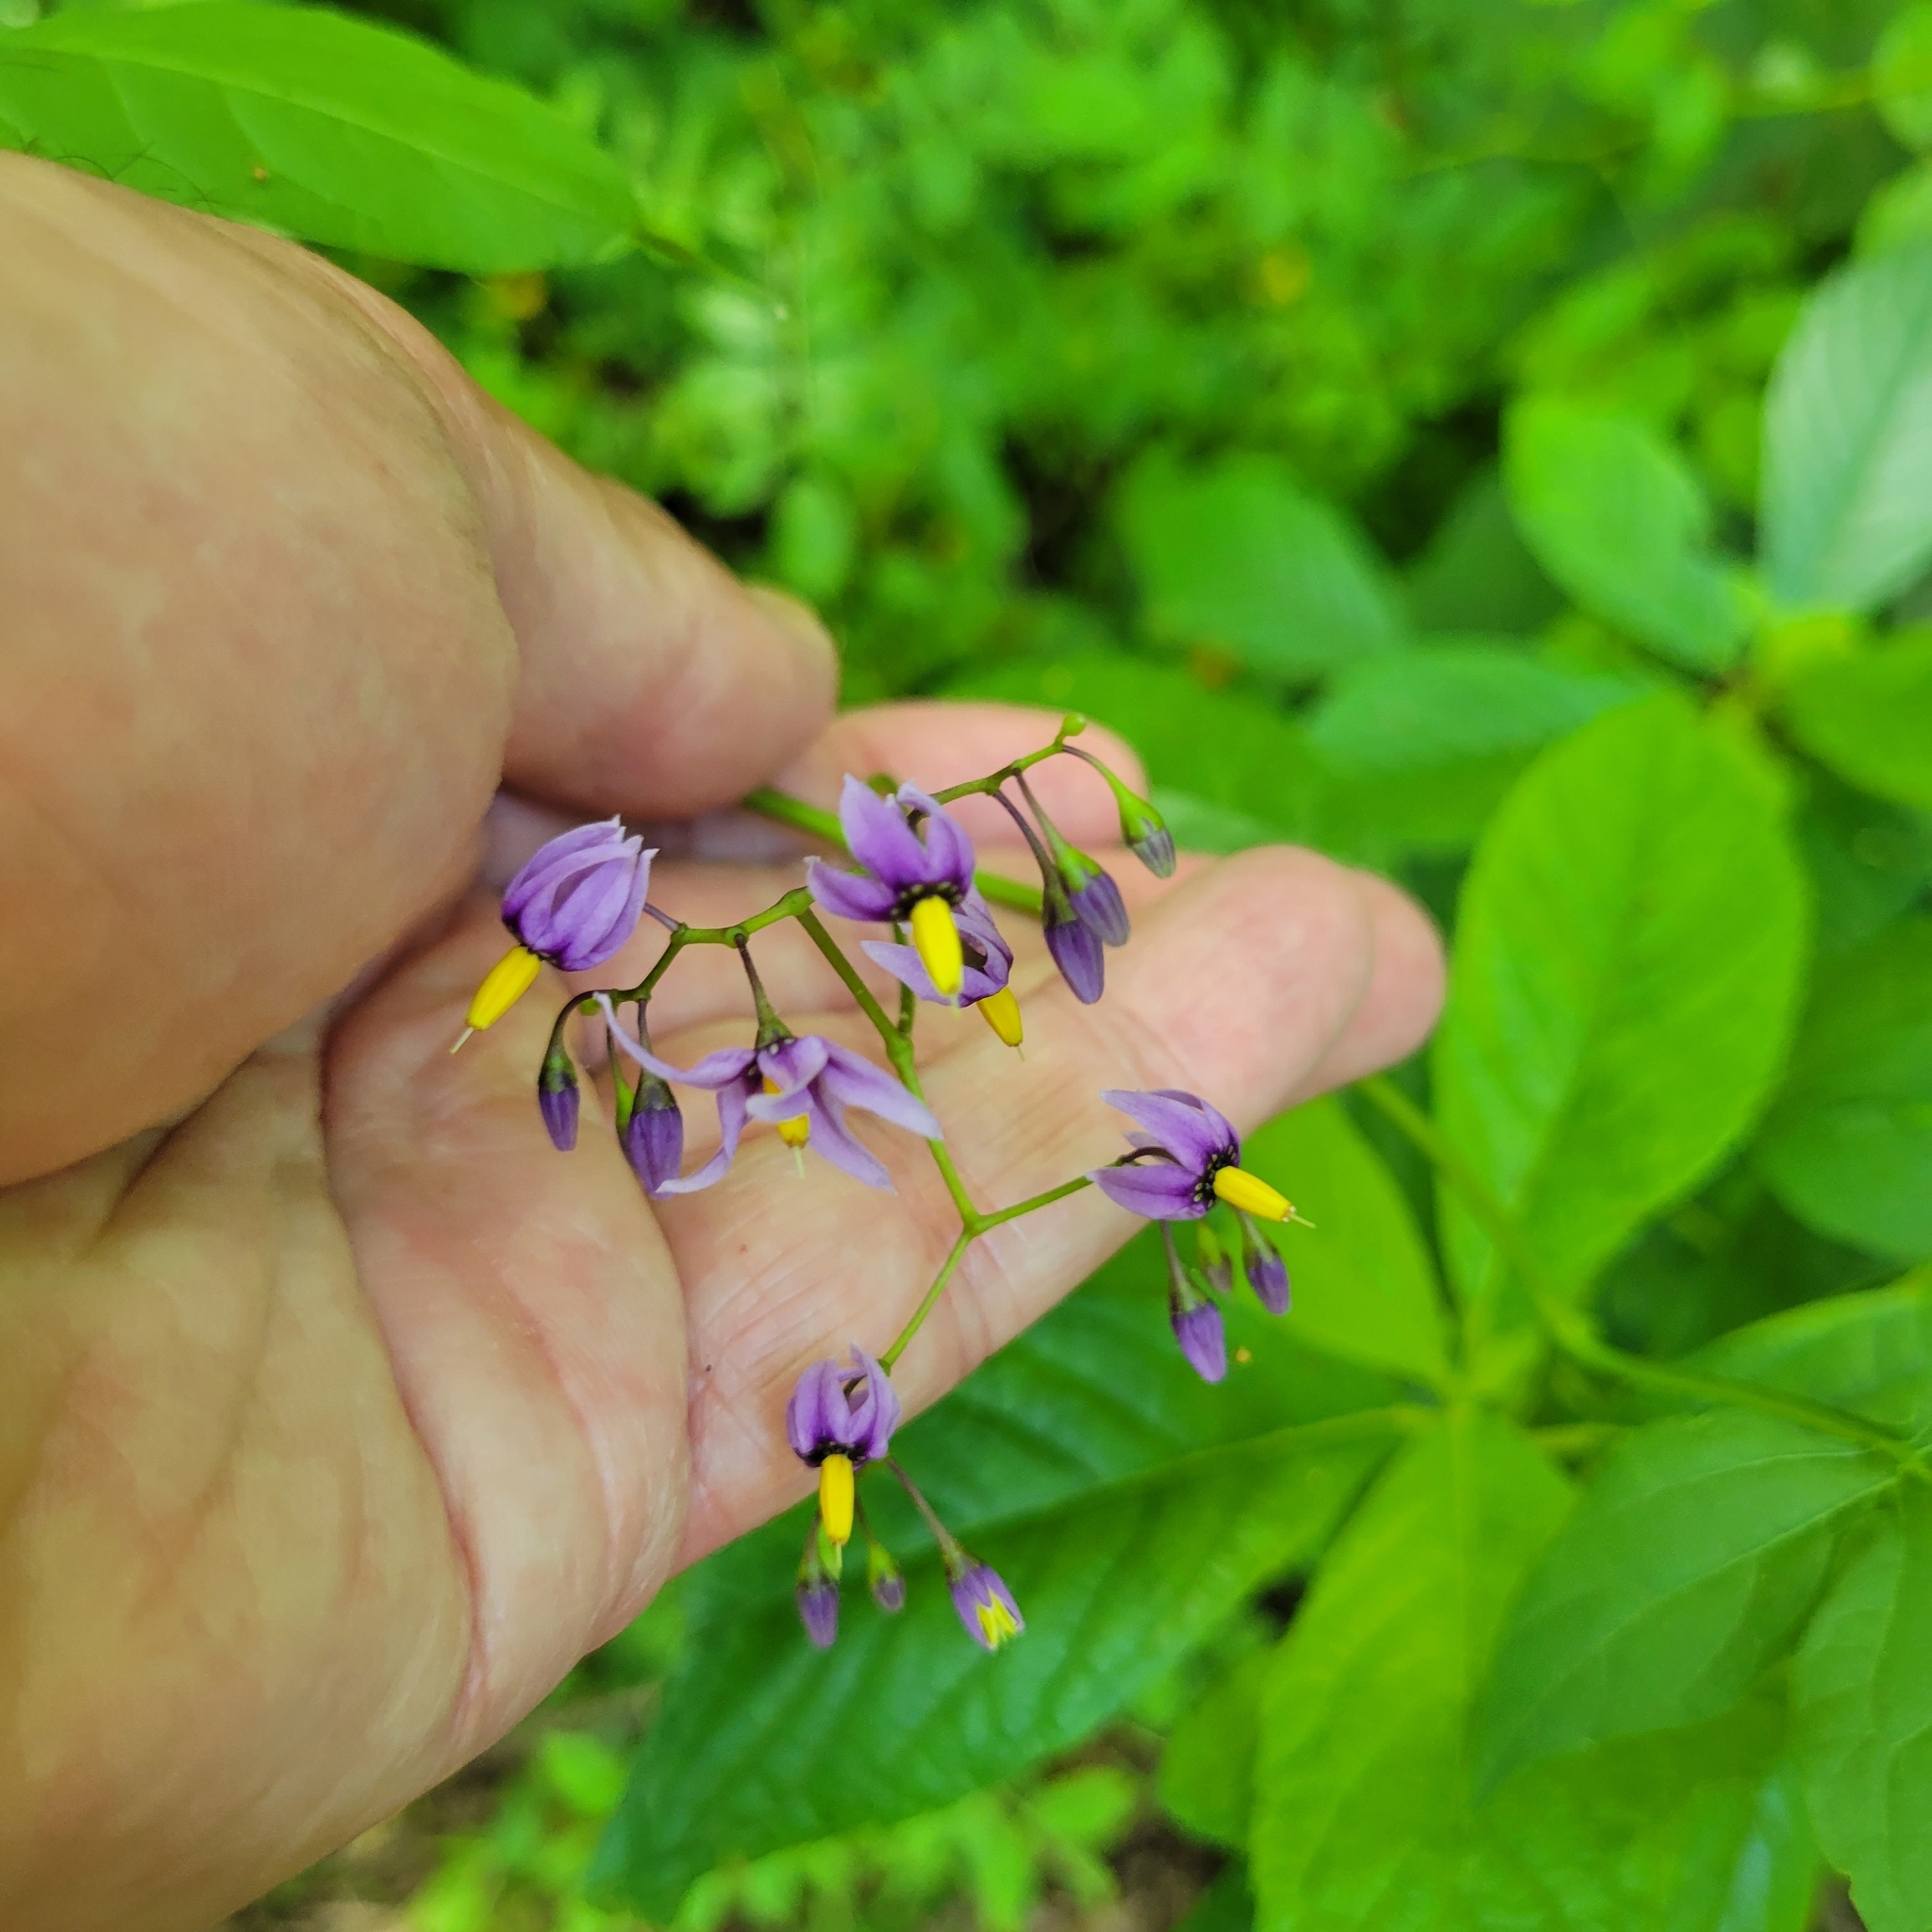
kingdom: Plantae
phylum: Tracheophyta
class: Magnoliopsida
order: Solanales
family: Solanaceae
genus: Solanum
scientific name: Solanum dulcamara
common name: Climbing nightshade
